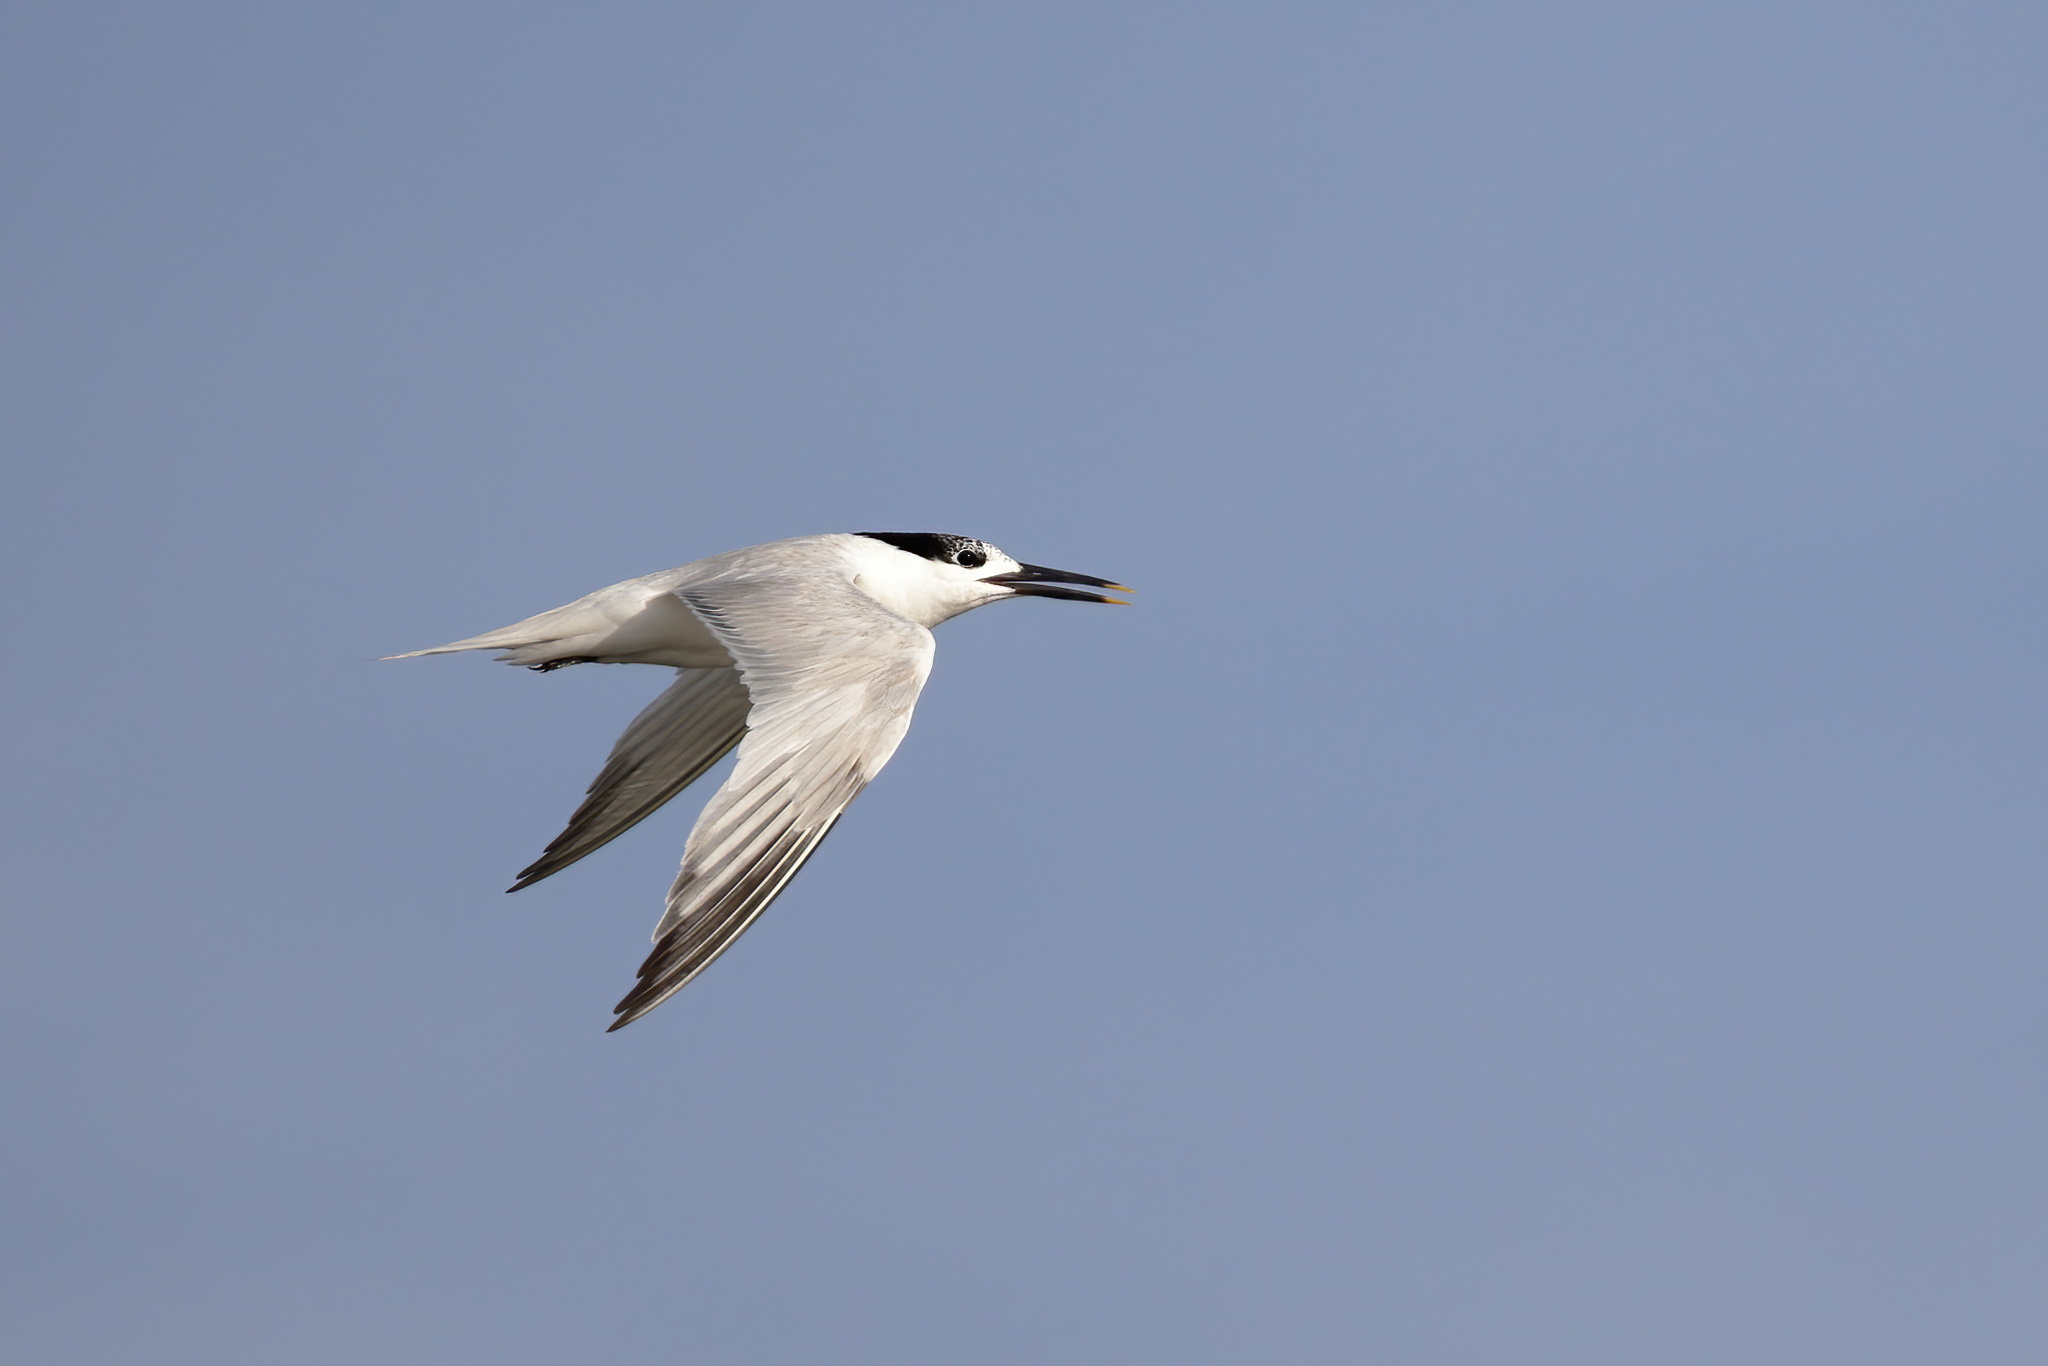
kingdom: Animalia
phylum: Chordata
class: Aves
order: Charadriiformes
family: Laridae
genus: Thalasseus
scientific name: Thalasseus sandvicensis
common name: Sandwich tern
